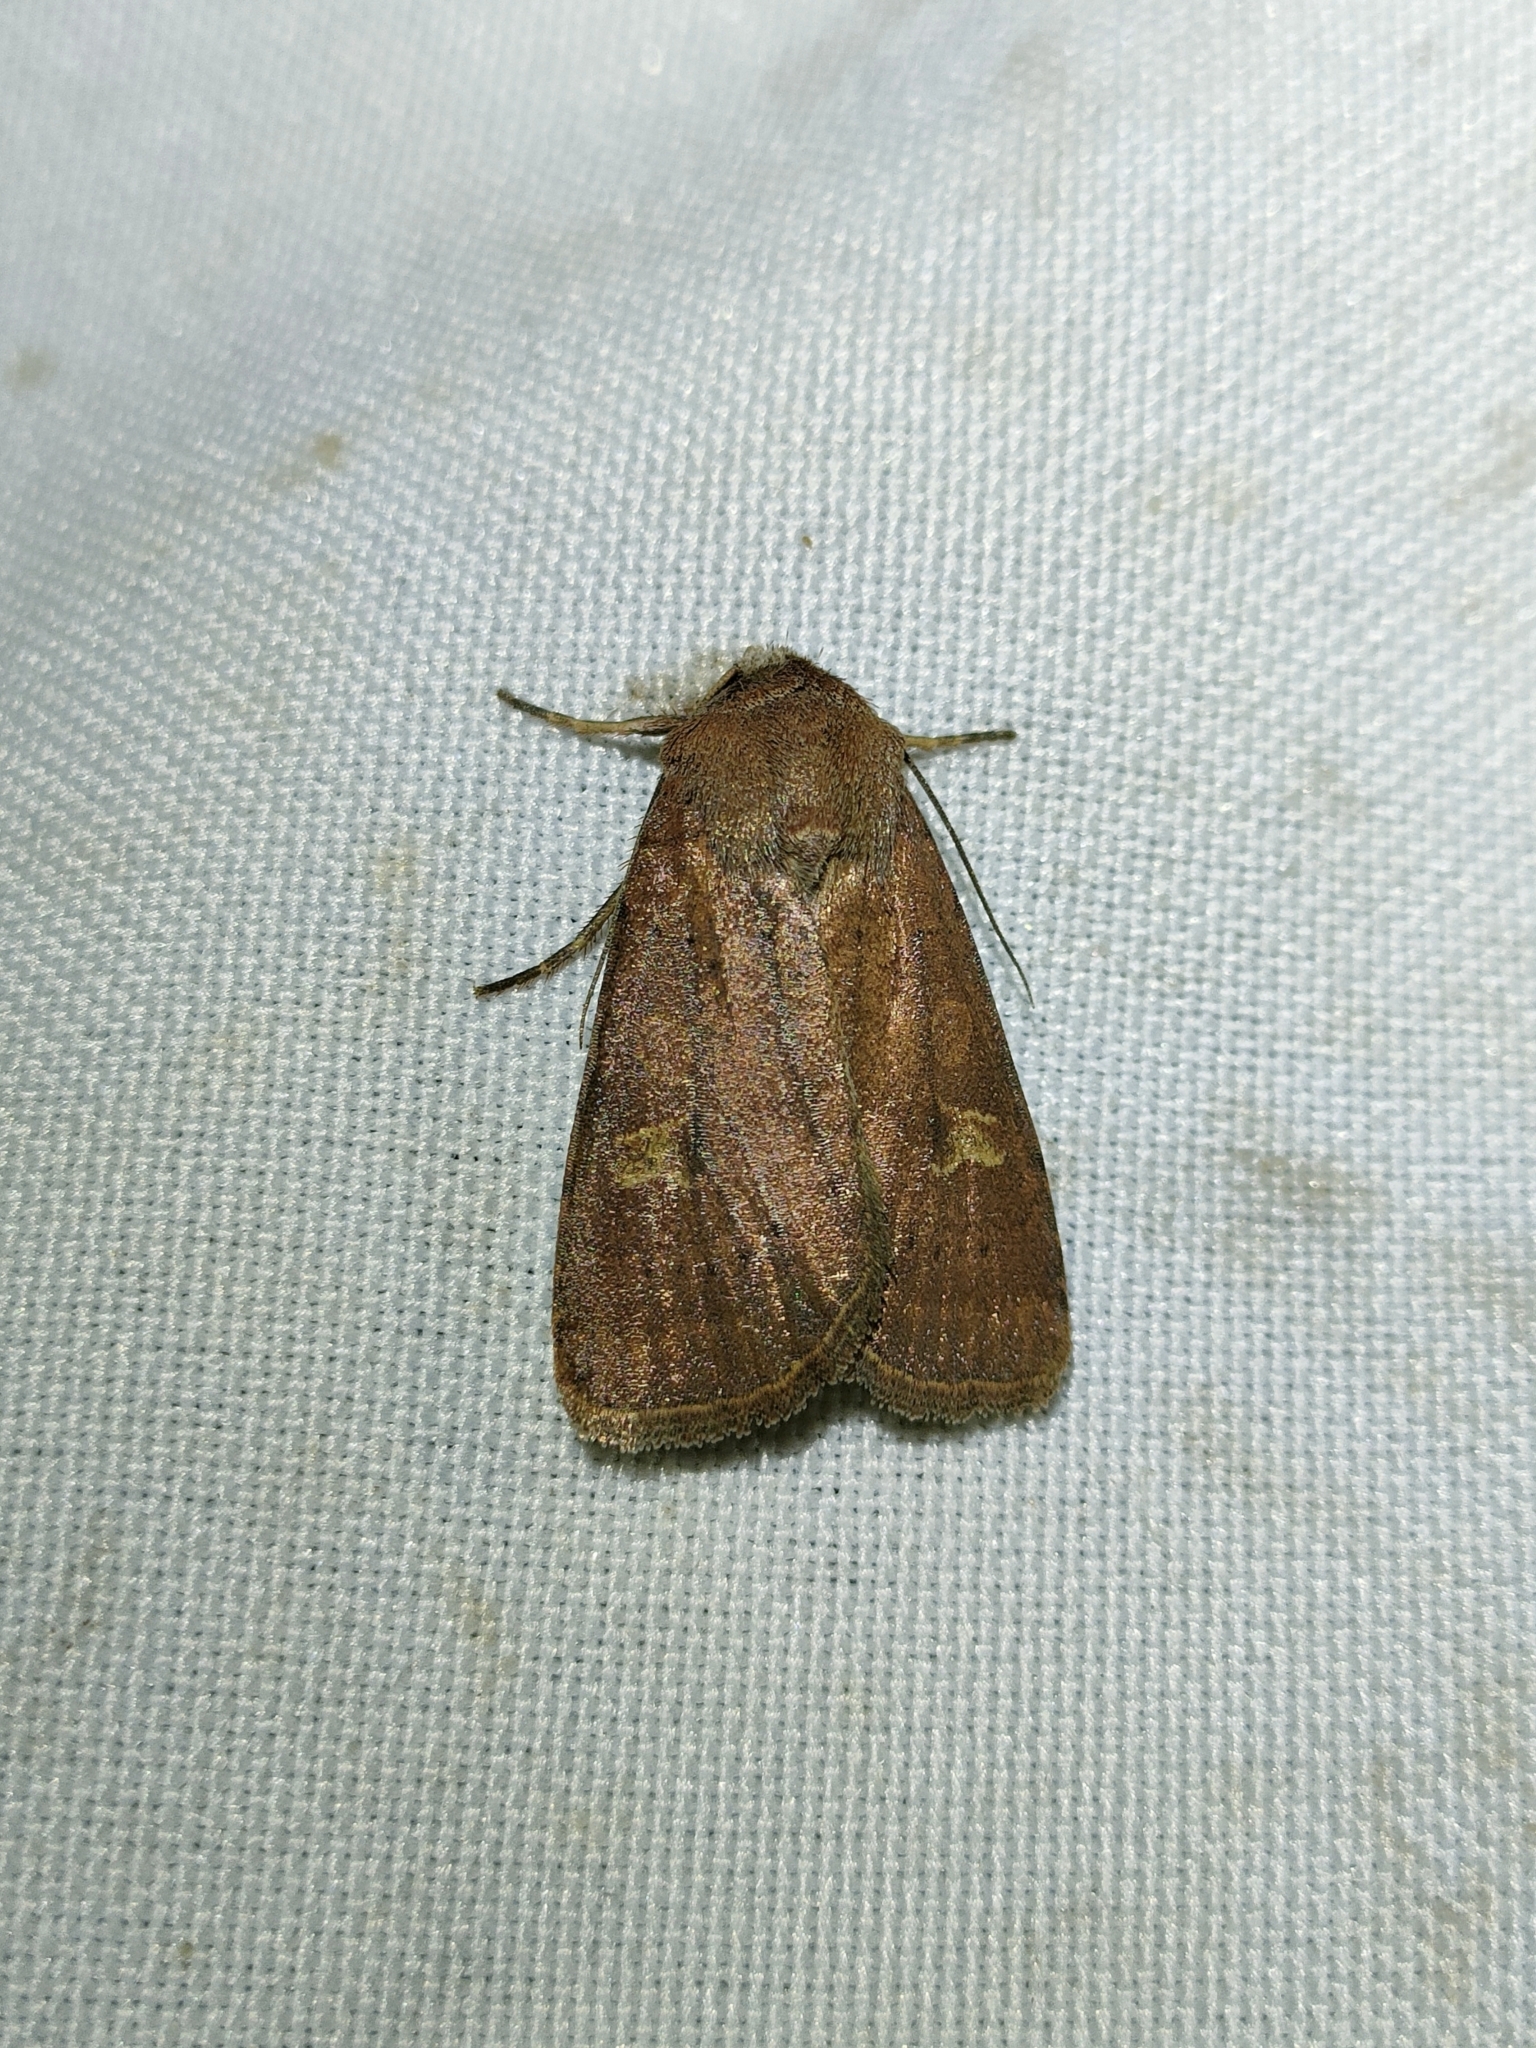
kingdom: Animalia
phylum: Arthropoda
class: Insecta
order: Lepidoptera
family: Noctuidae
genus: Xestia
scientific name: Xestia xanthographa
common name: Square-spot rustic
